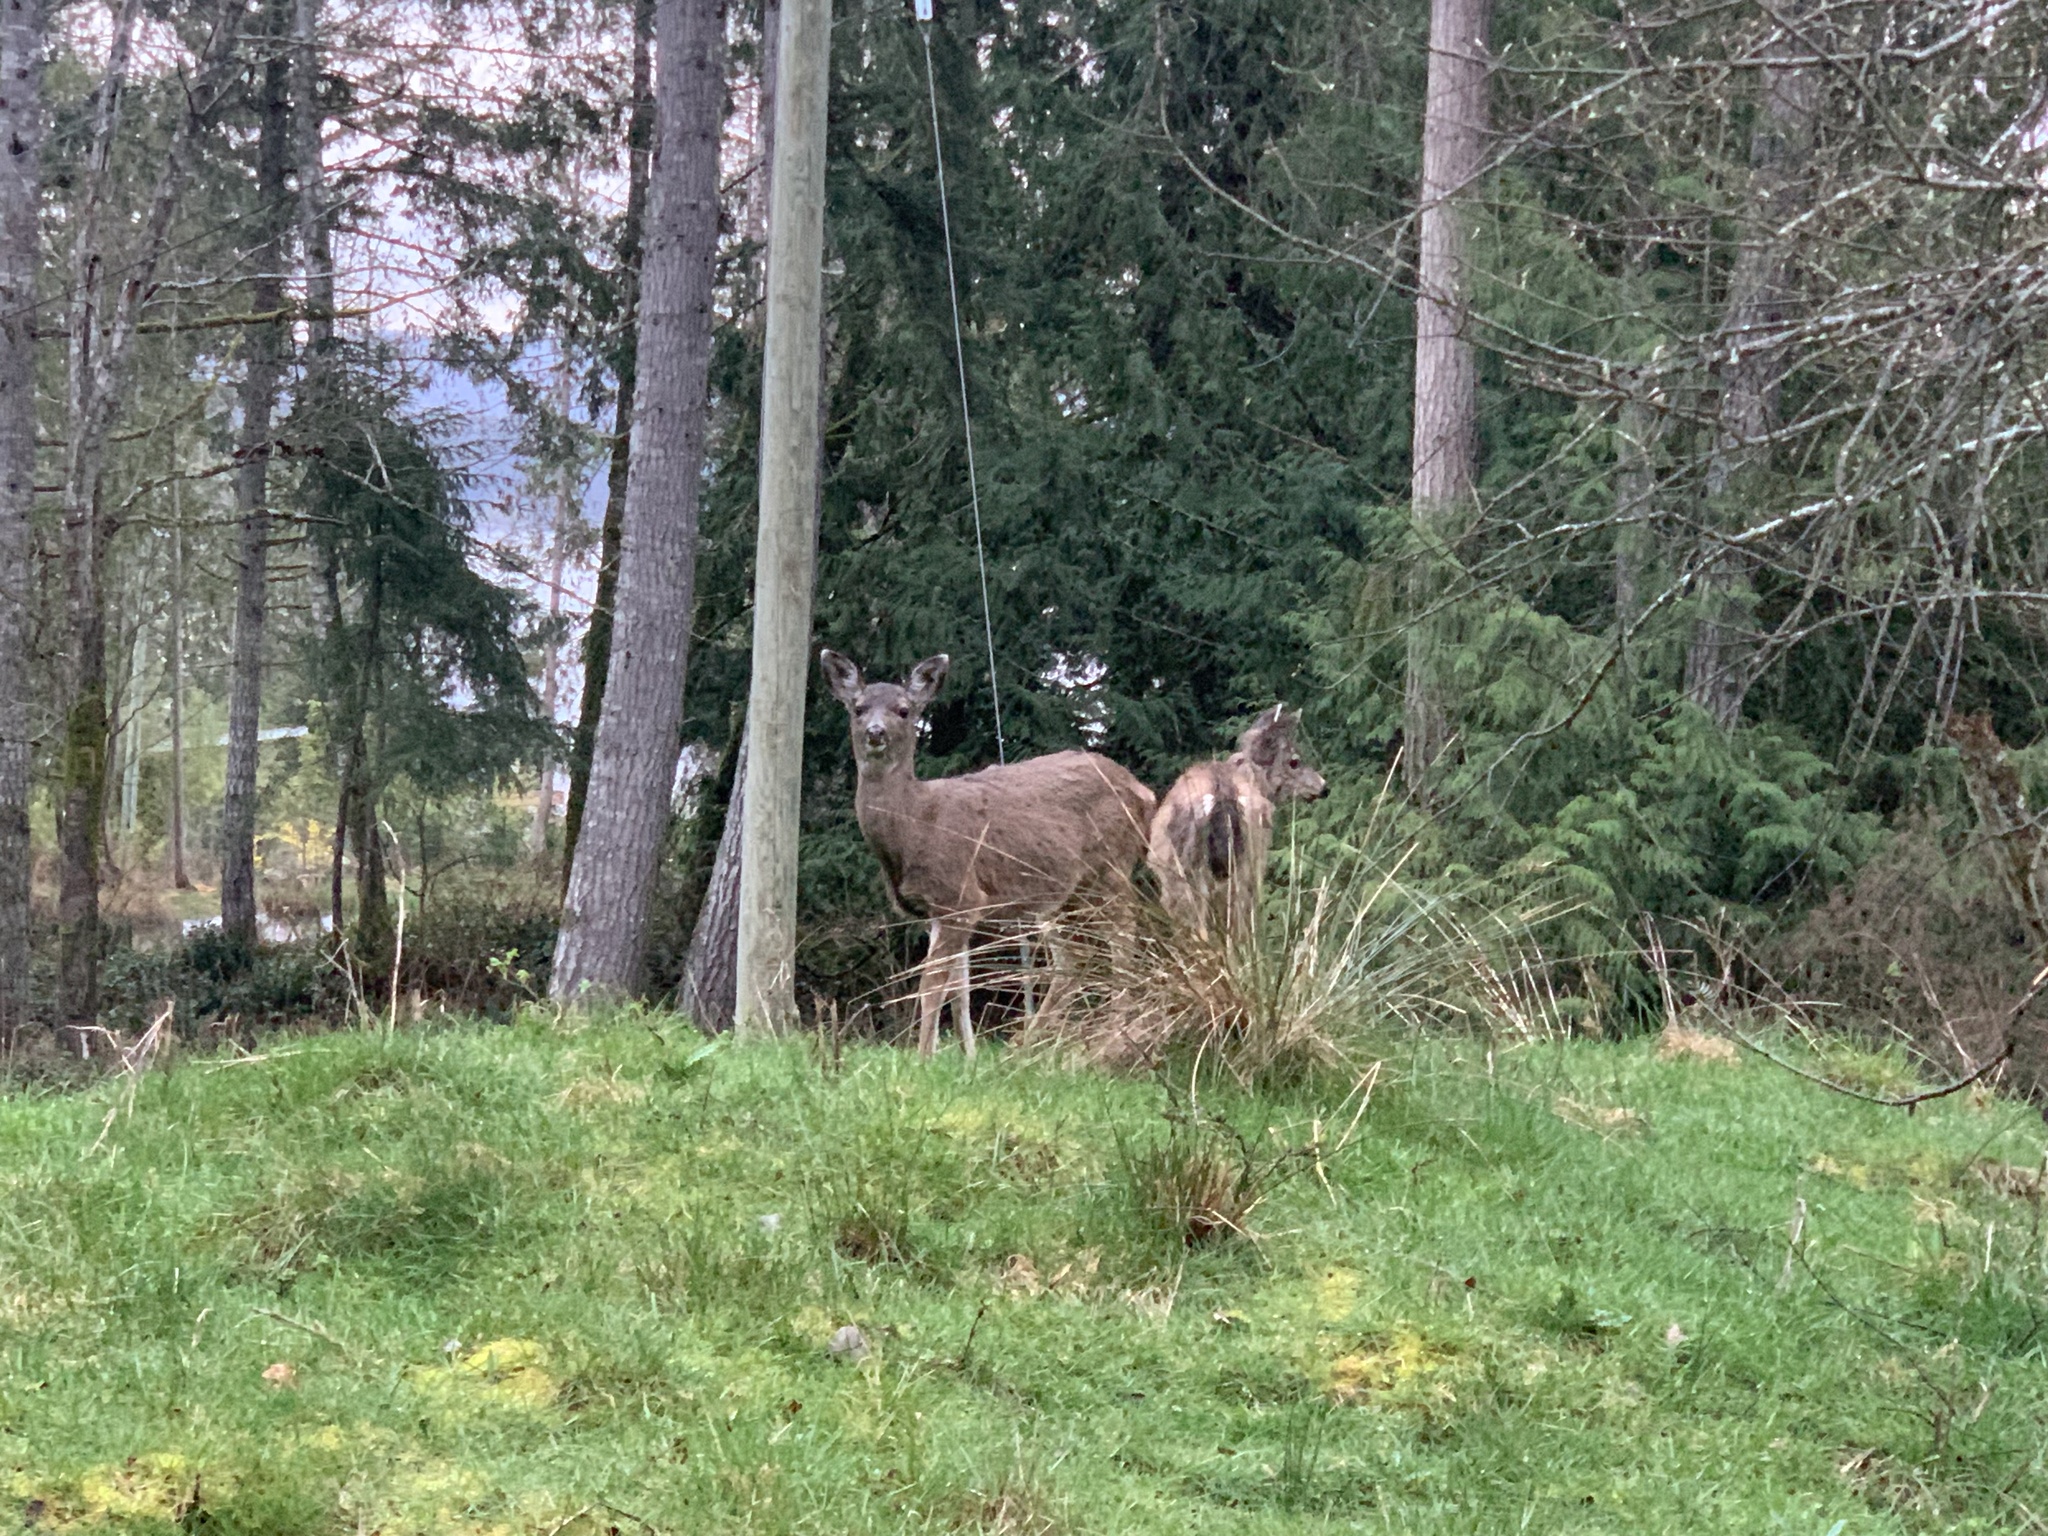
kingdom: Animalia
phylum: Chordata
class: Mammalia
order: Artiodactyla
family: Cervidae
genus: Odocoileus
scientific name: Odocoileus hemionus
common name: Mule deer
